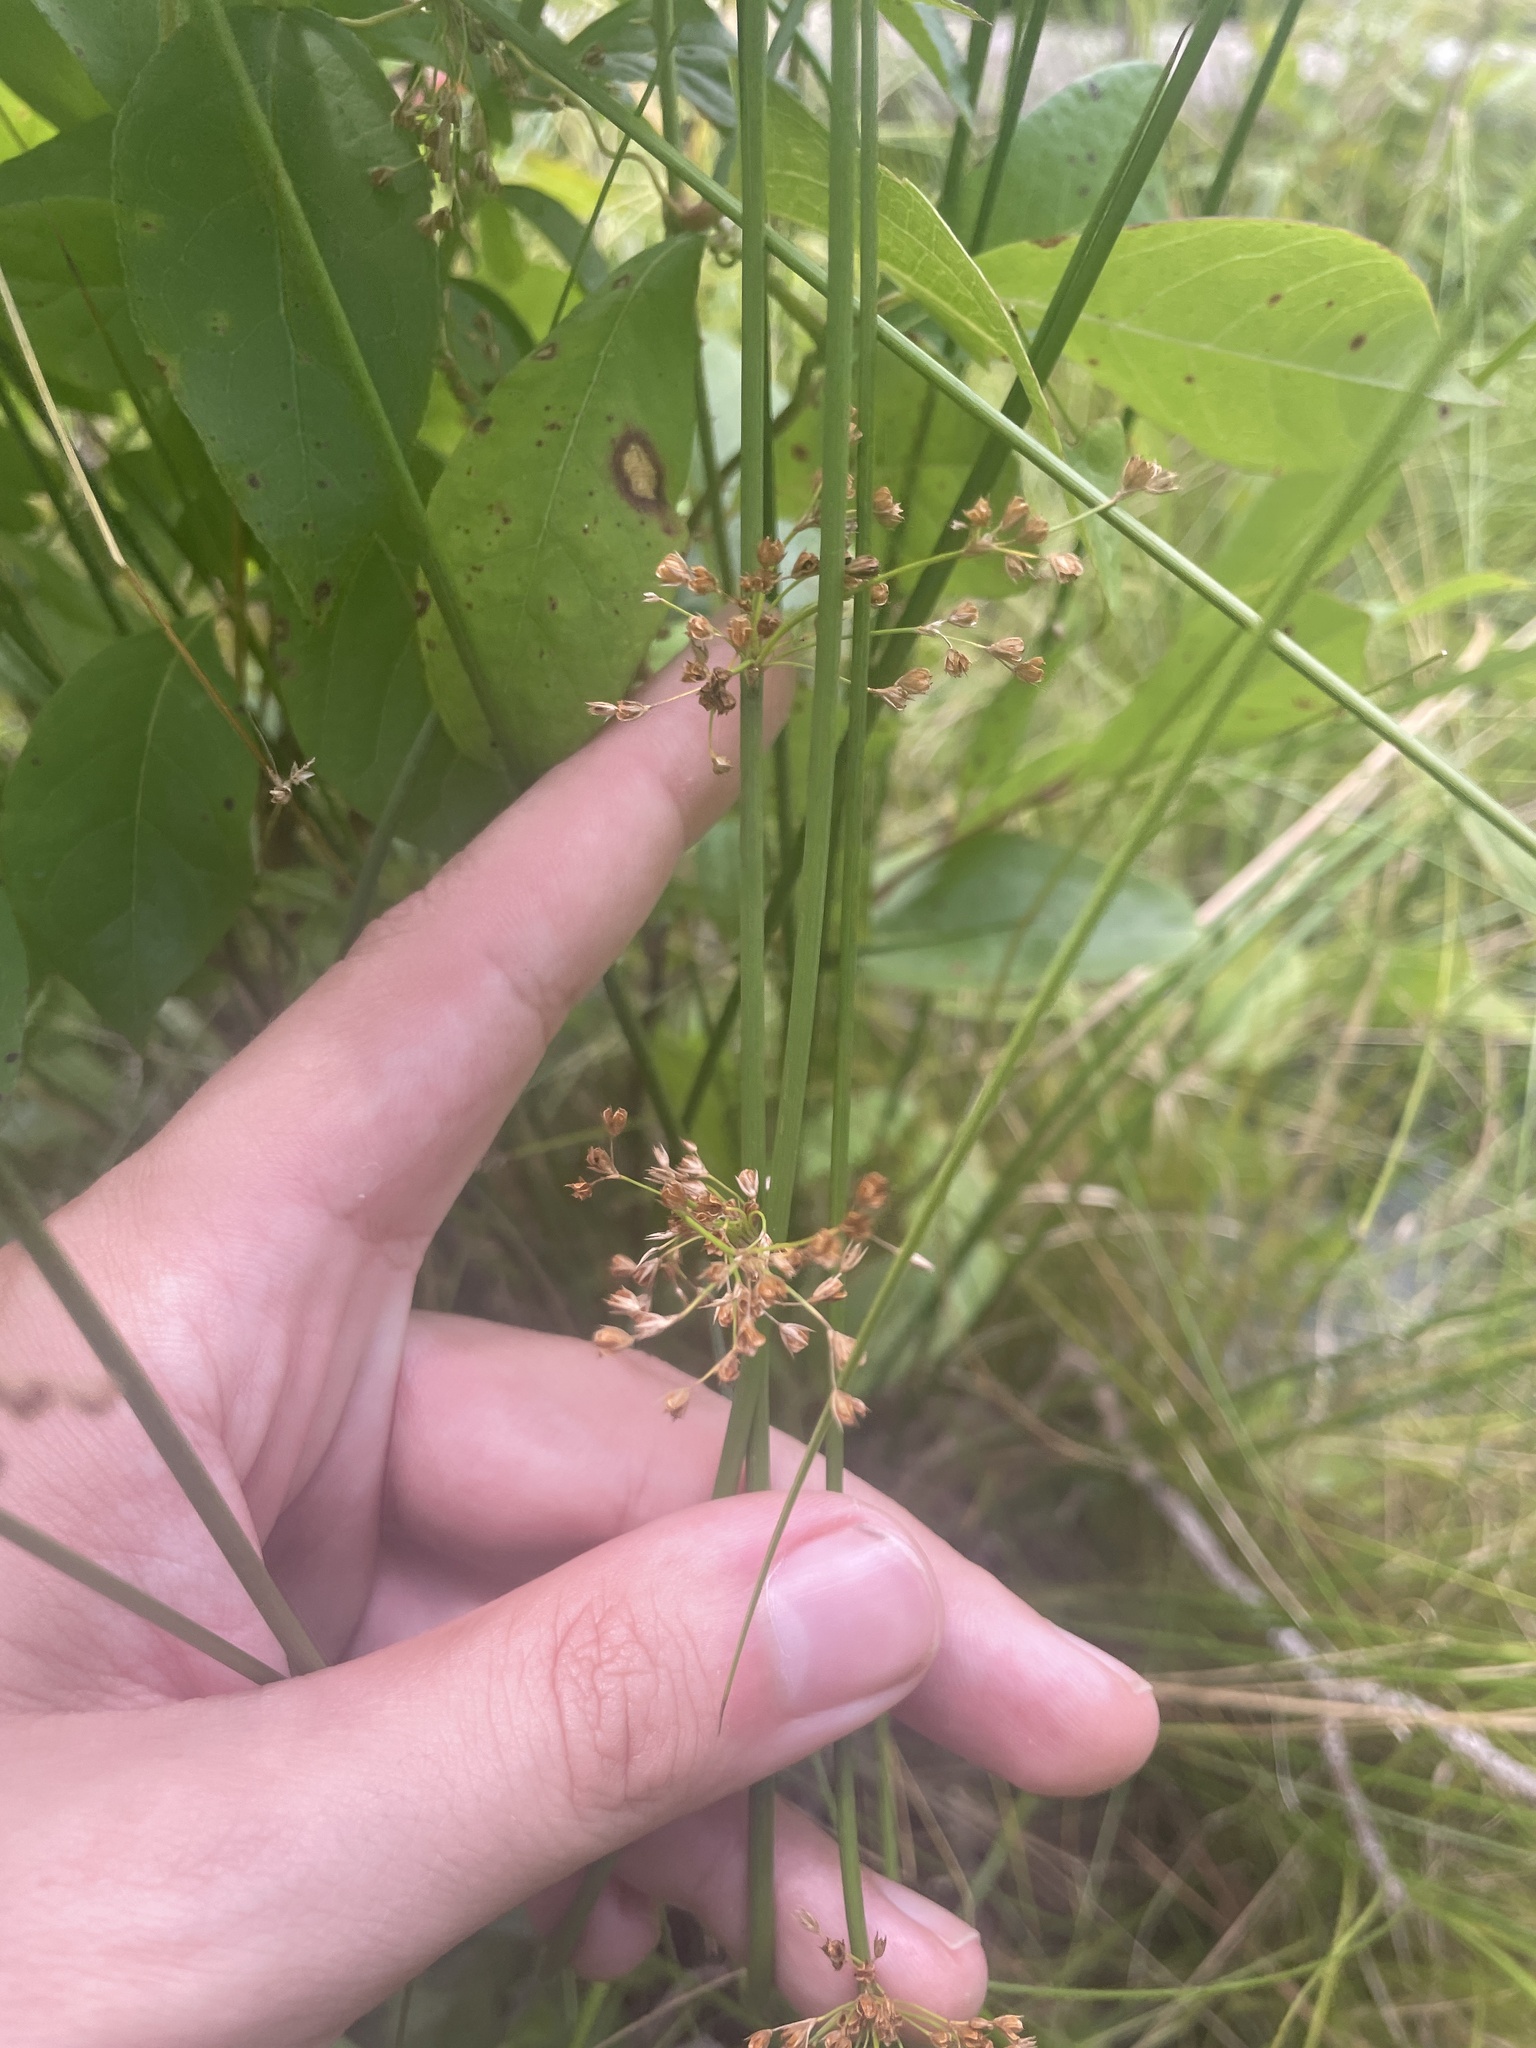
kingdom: Plantae
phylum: Tracheophyta
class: Liliopsida
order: Poales
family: Juncaceae
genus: Juncus
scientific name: Juncus effusus
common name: Soft rush
